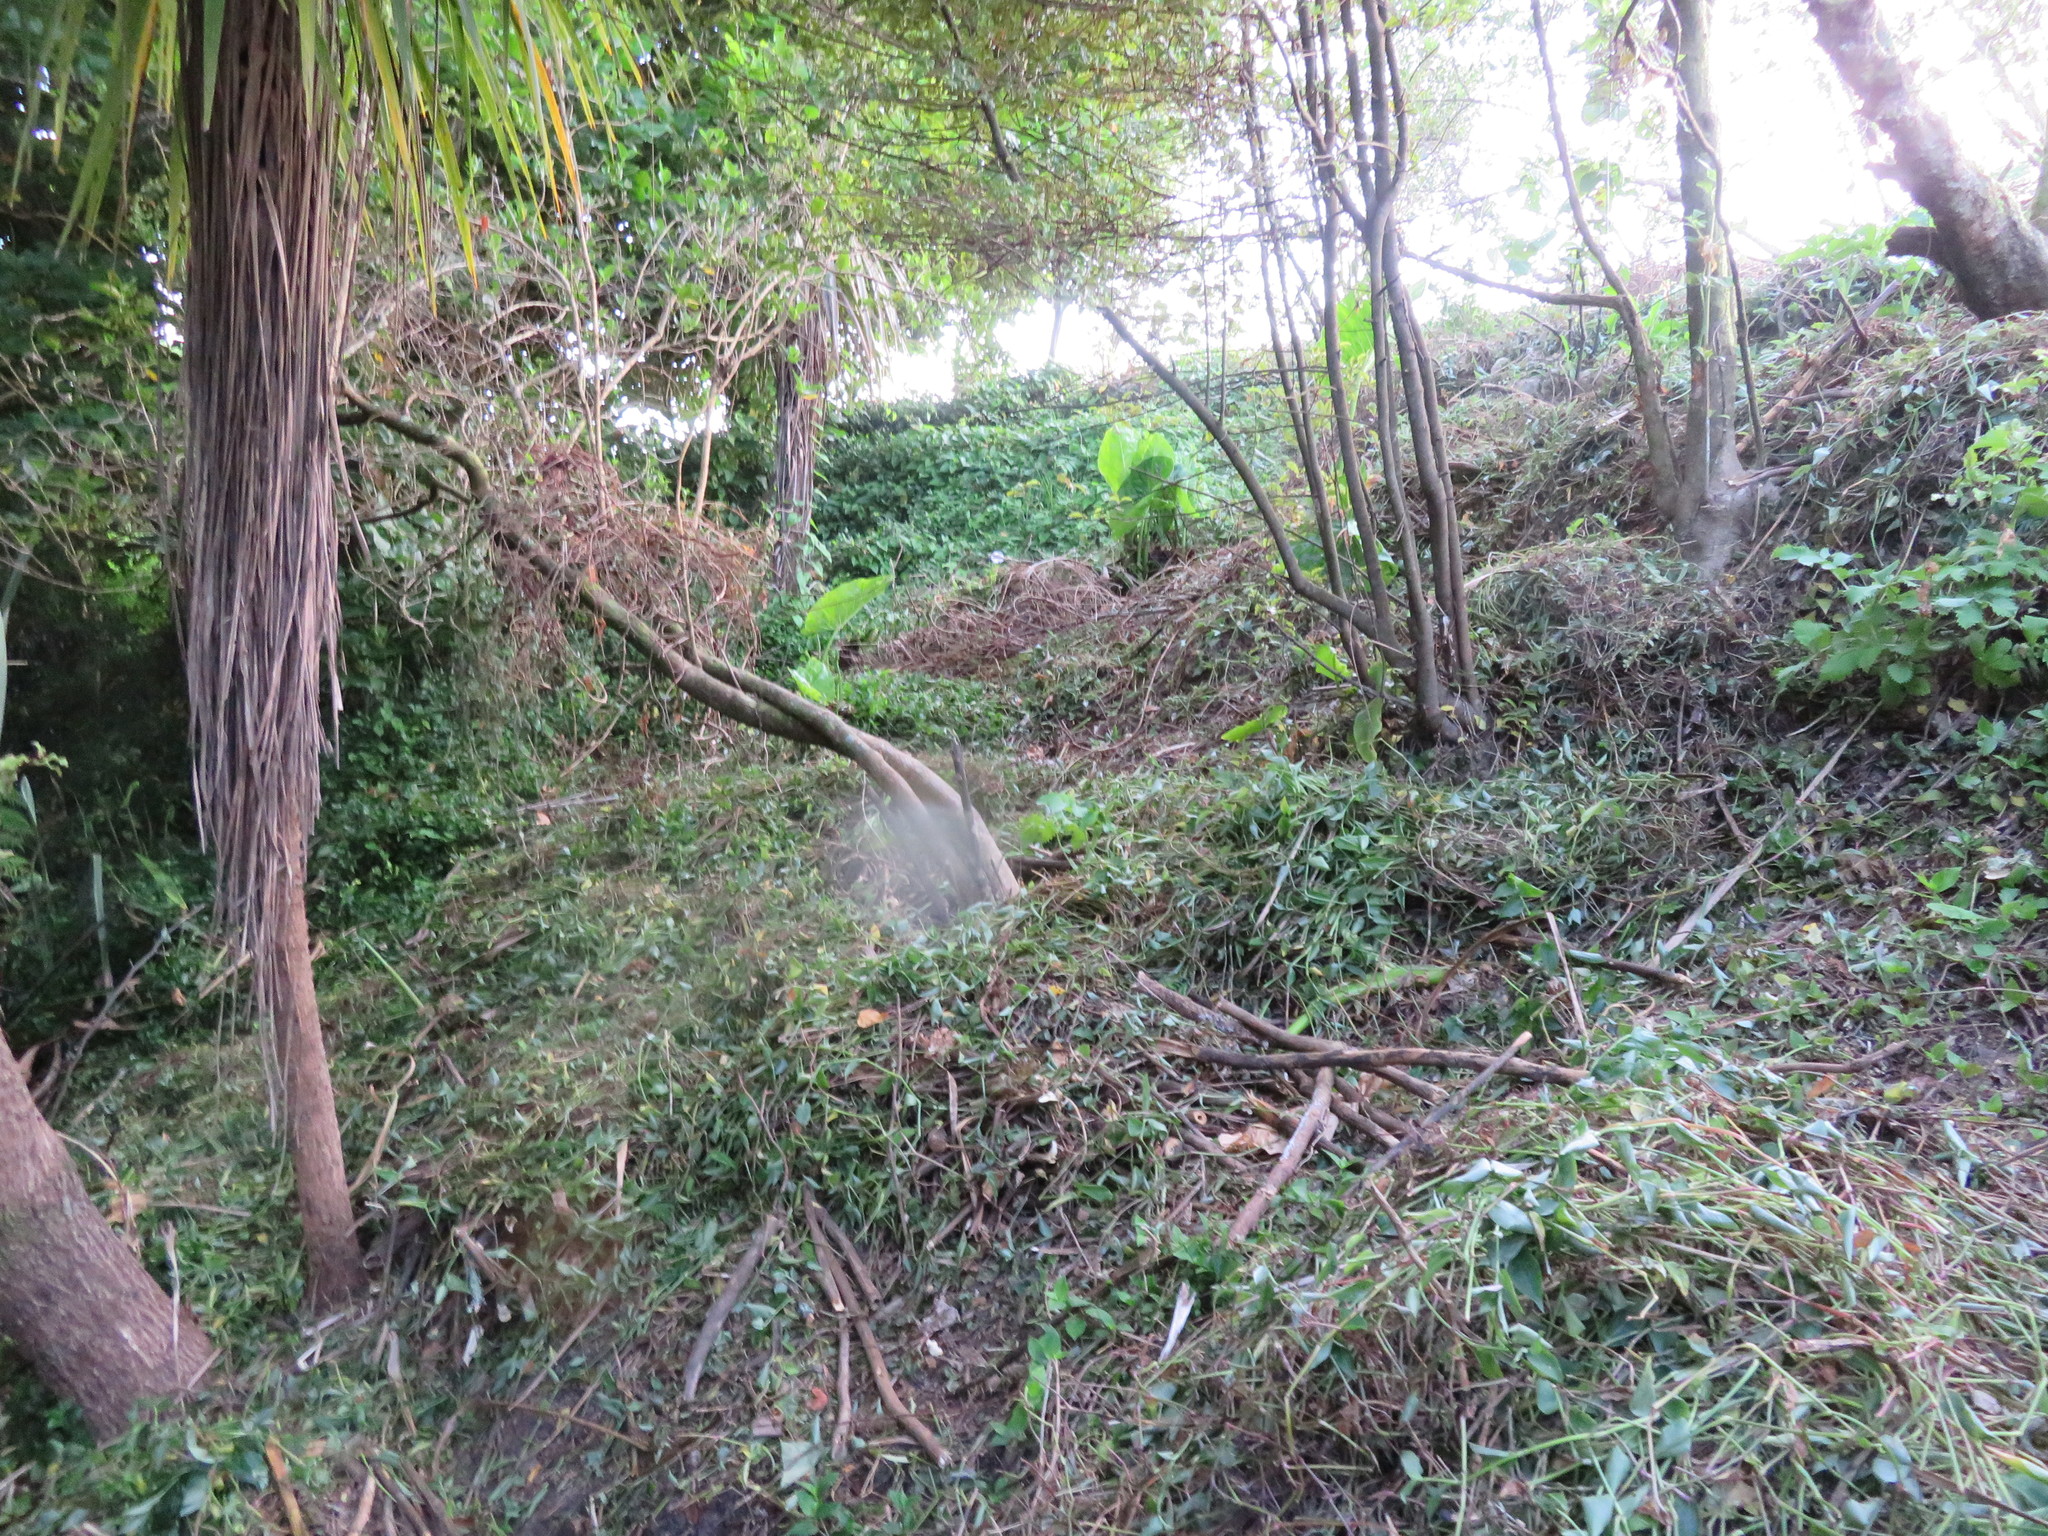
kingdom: Plantae
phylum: Tracheophyta
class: Liliopsida
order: Commelinales
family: Commelinaceae
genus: Tradescantia
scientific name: Tradescantia fluminensis
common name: Wandering-jew
